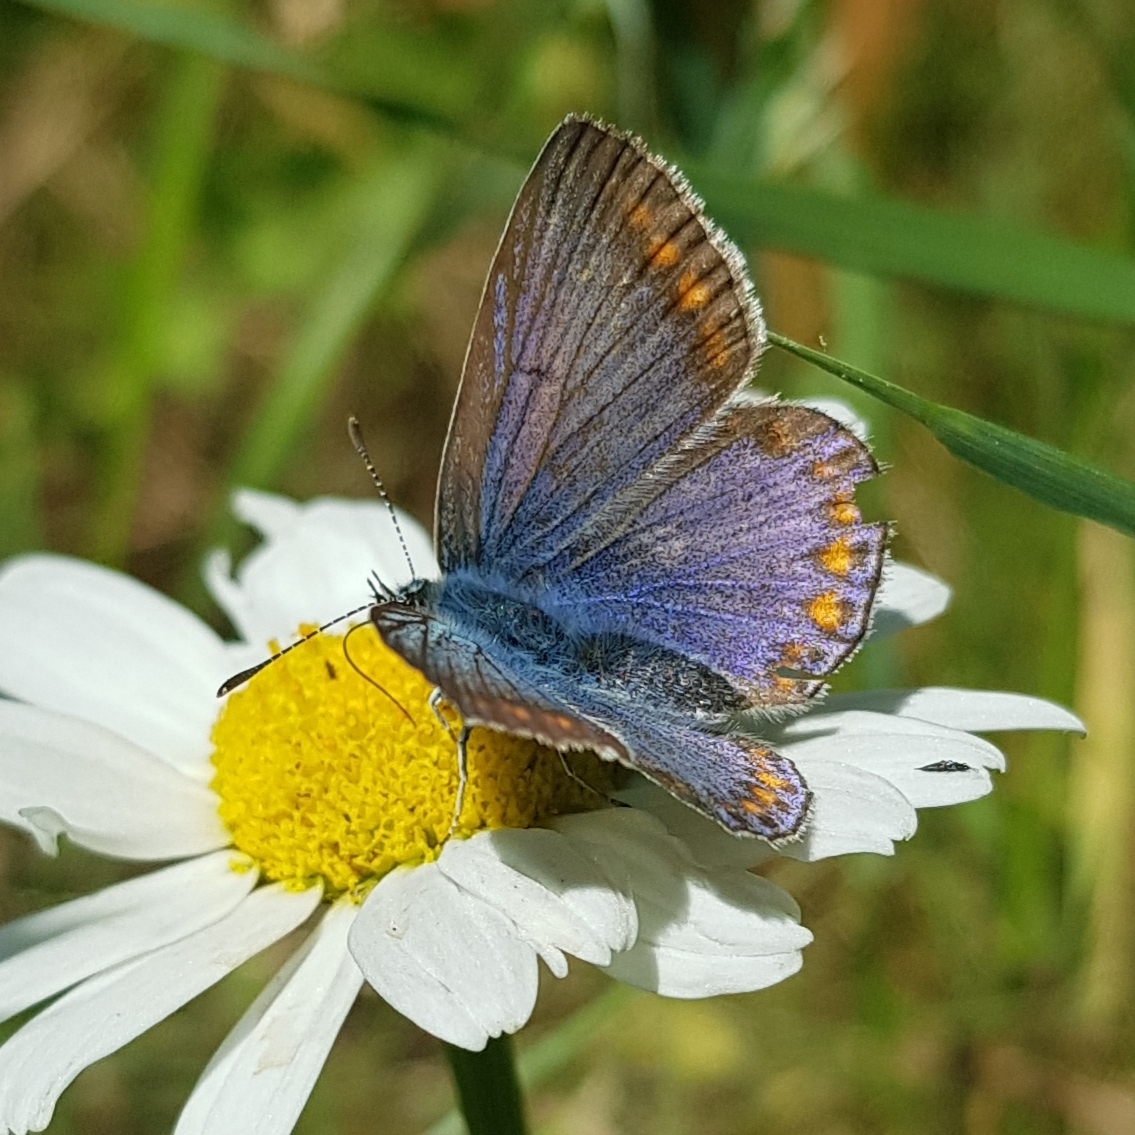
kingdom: Animalia
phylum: Arthropoda
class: Insecta
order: Lepidoptera
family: Lycaenidae
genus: Polyommatus
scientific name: Polyommatus icarus
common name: Common blue
